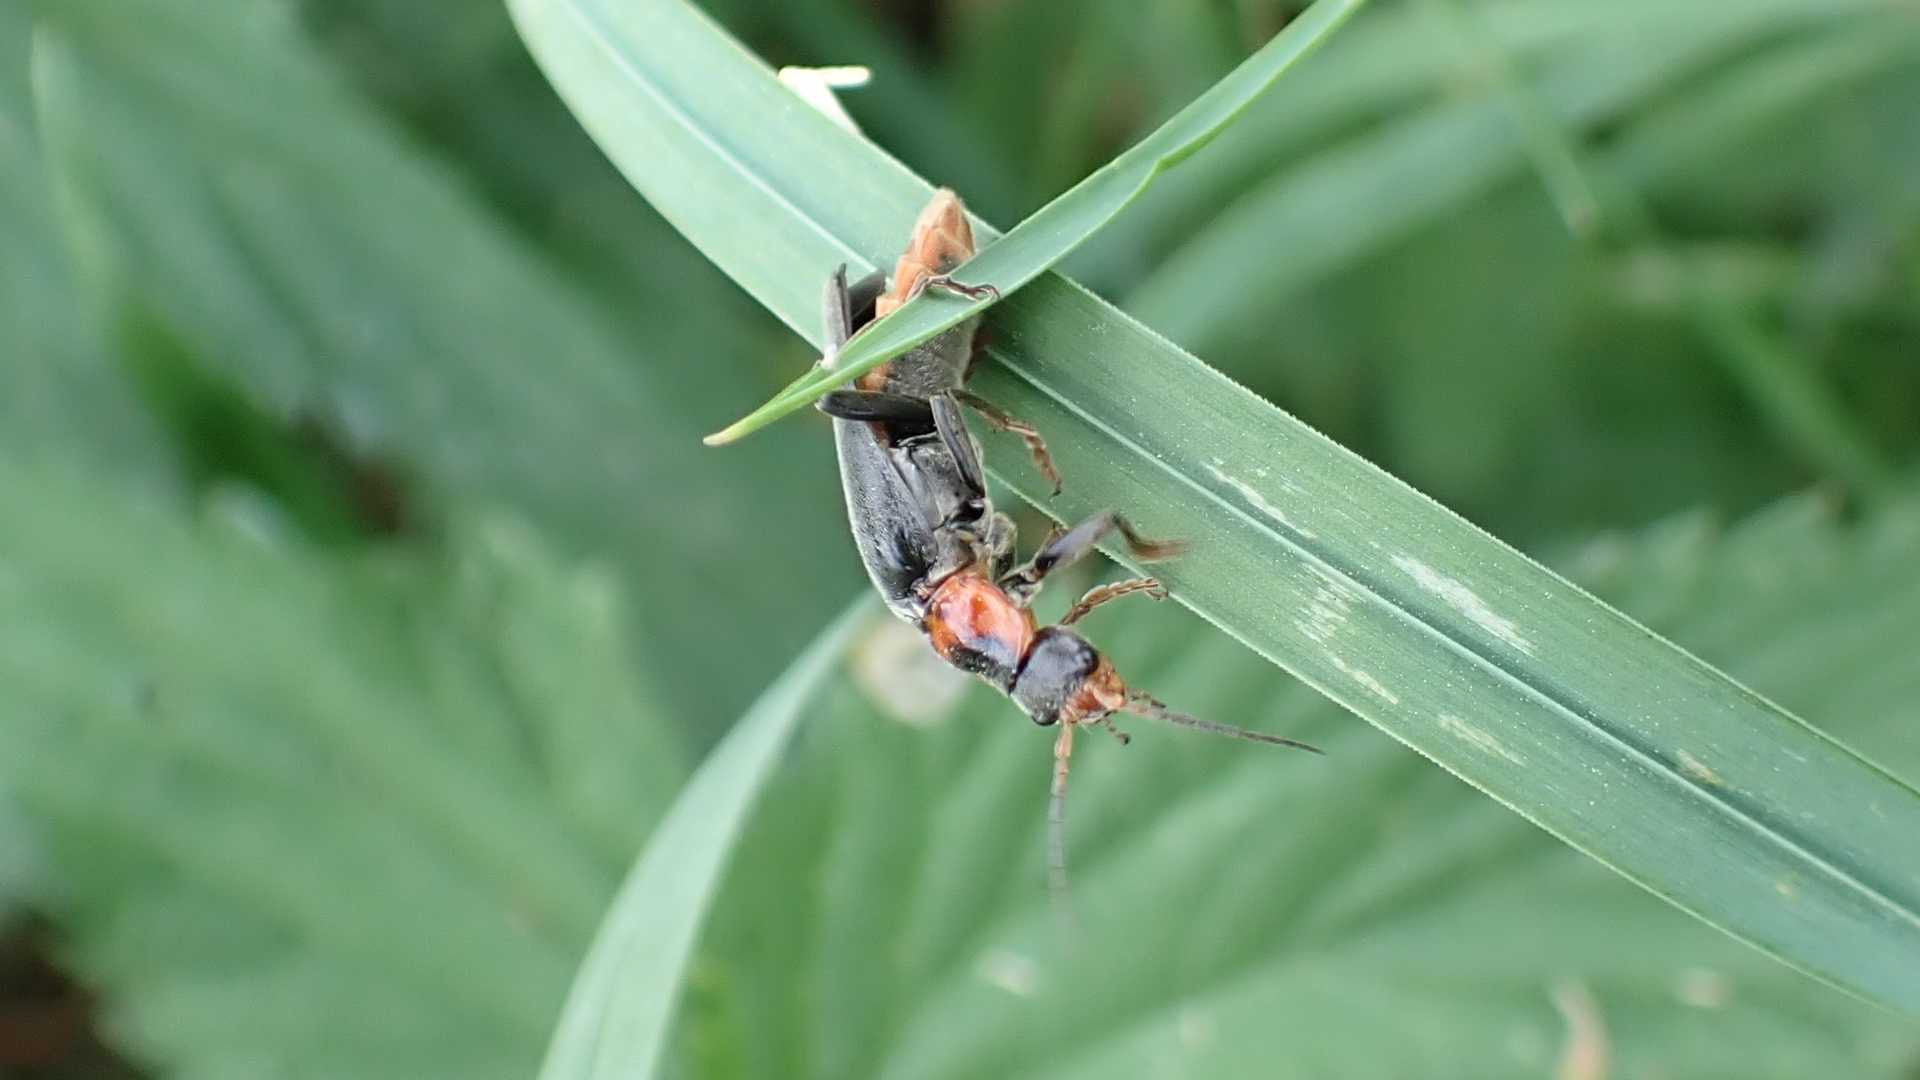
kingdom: Animalia
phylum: Arthropoda
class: Insecta
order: Coleoptera
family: Cantharidae
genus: Cantharis
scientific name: Cantharis fusca
